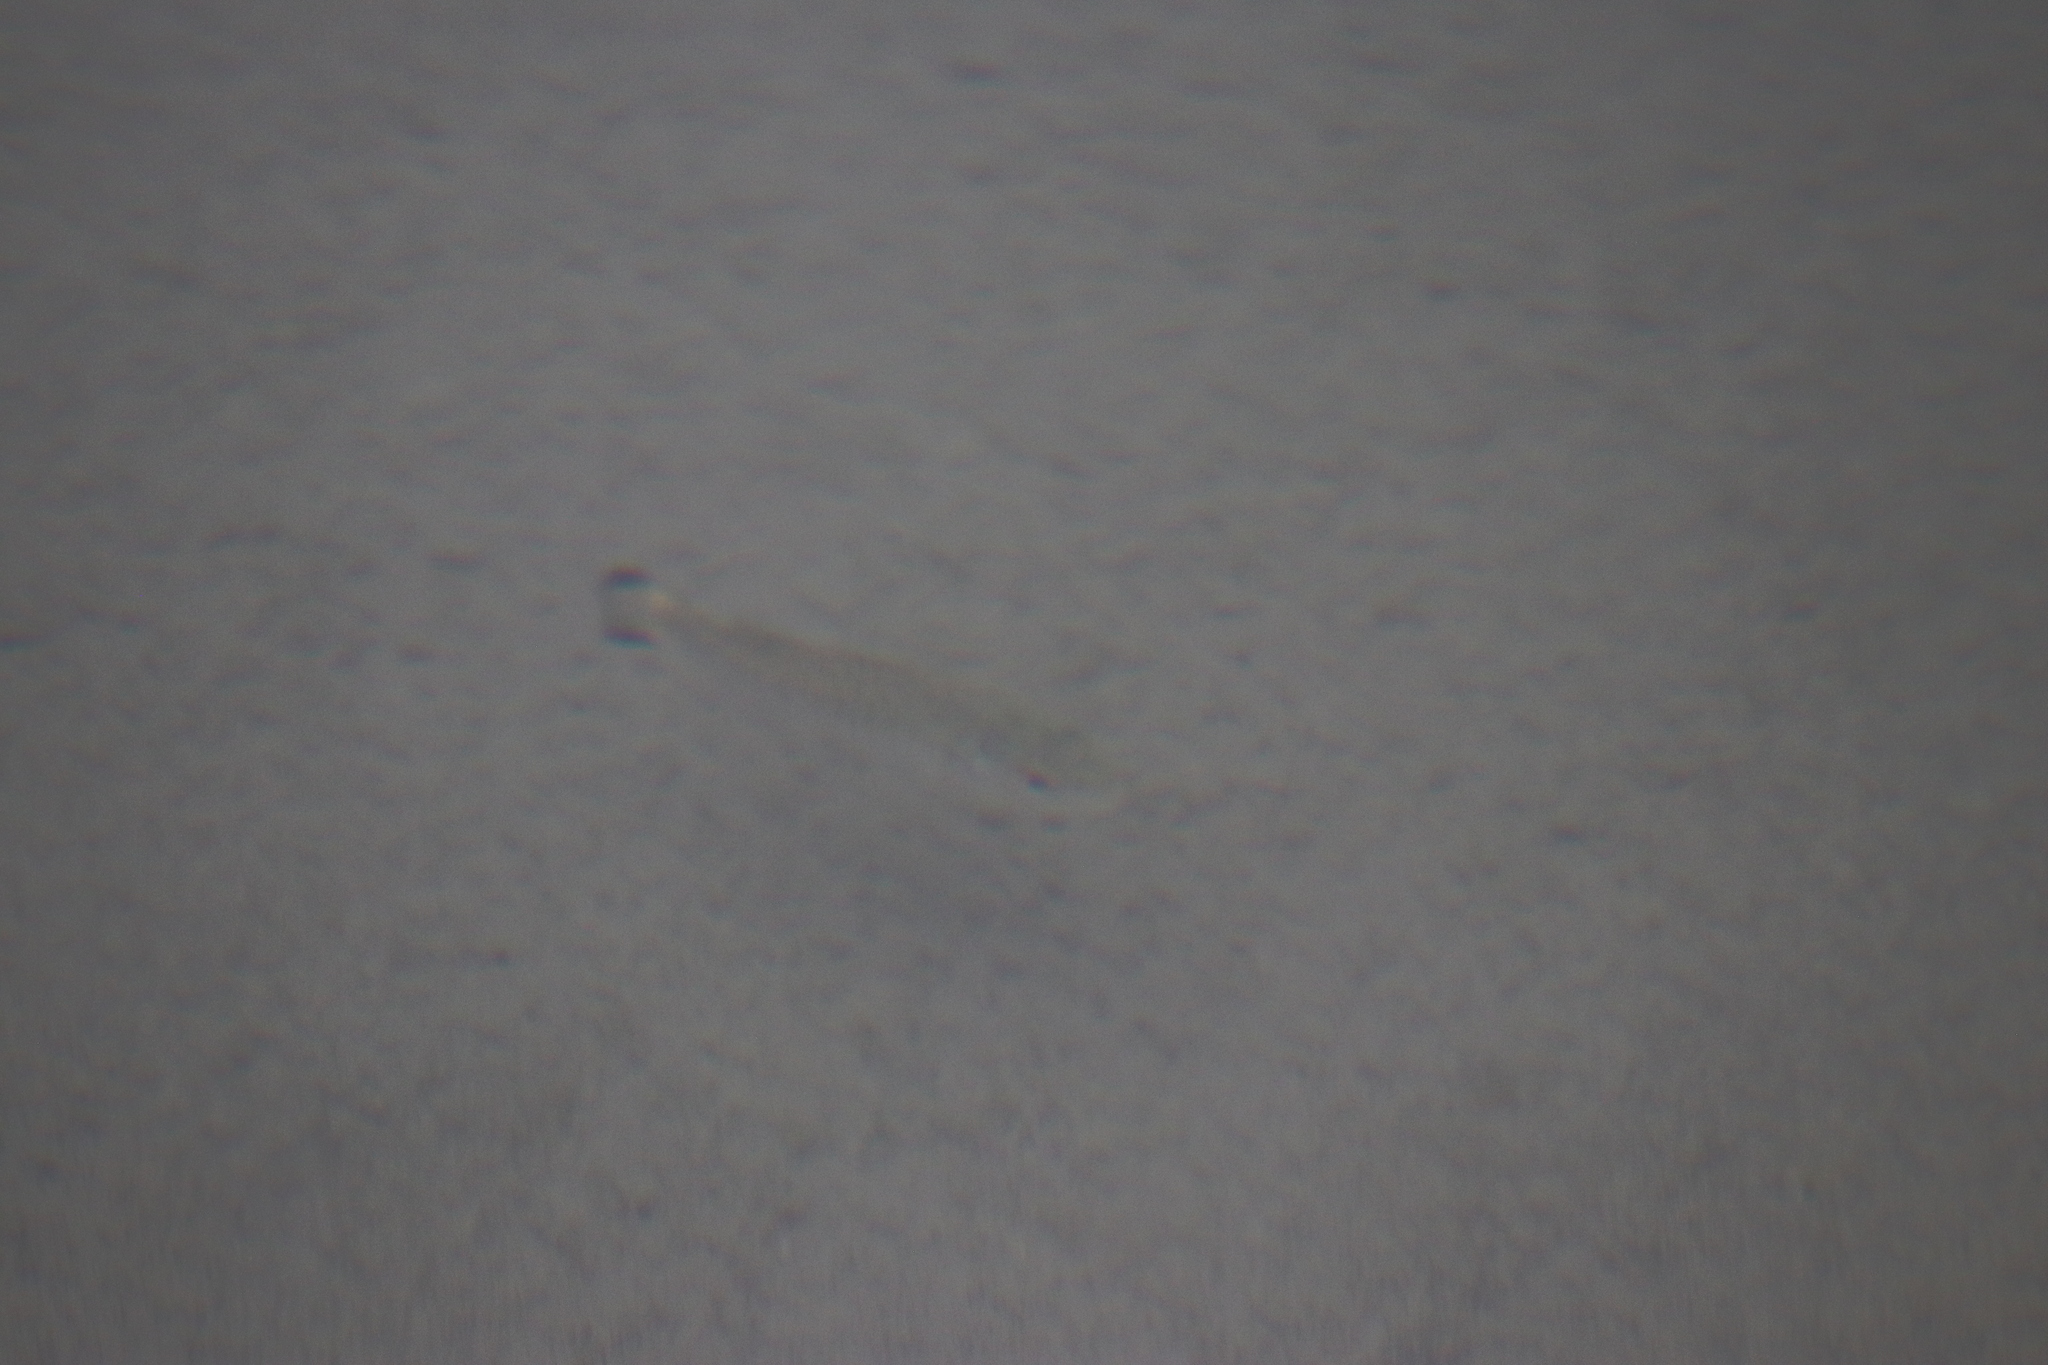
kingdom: Animalia
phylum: Chordata
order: Perciformes
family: Centrarchidae
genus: Micropterus
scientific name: Micropterus dolomieu
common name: Smallmouth bass
